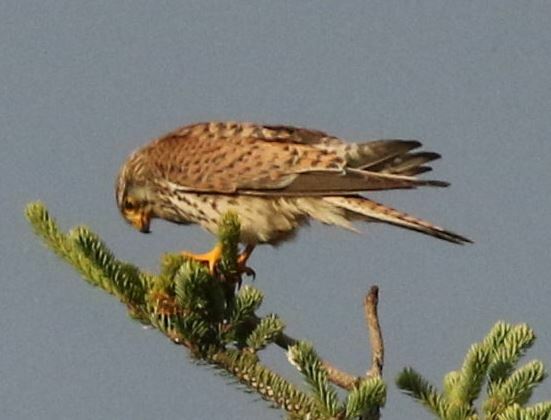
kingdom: Animalia
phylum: Chordata
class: Aves
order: Falconiformes
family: Falconidae
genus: Falco
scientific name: Falco tinnunculus
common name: Common kestrel
